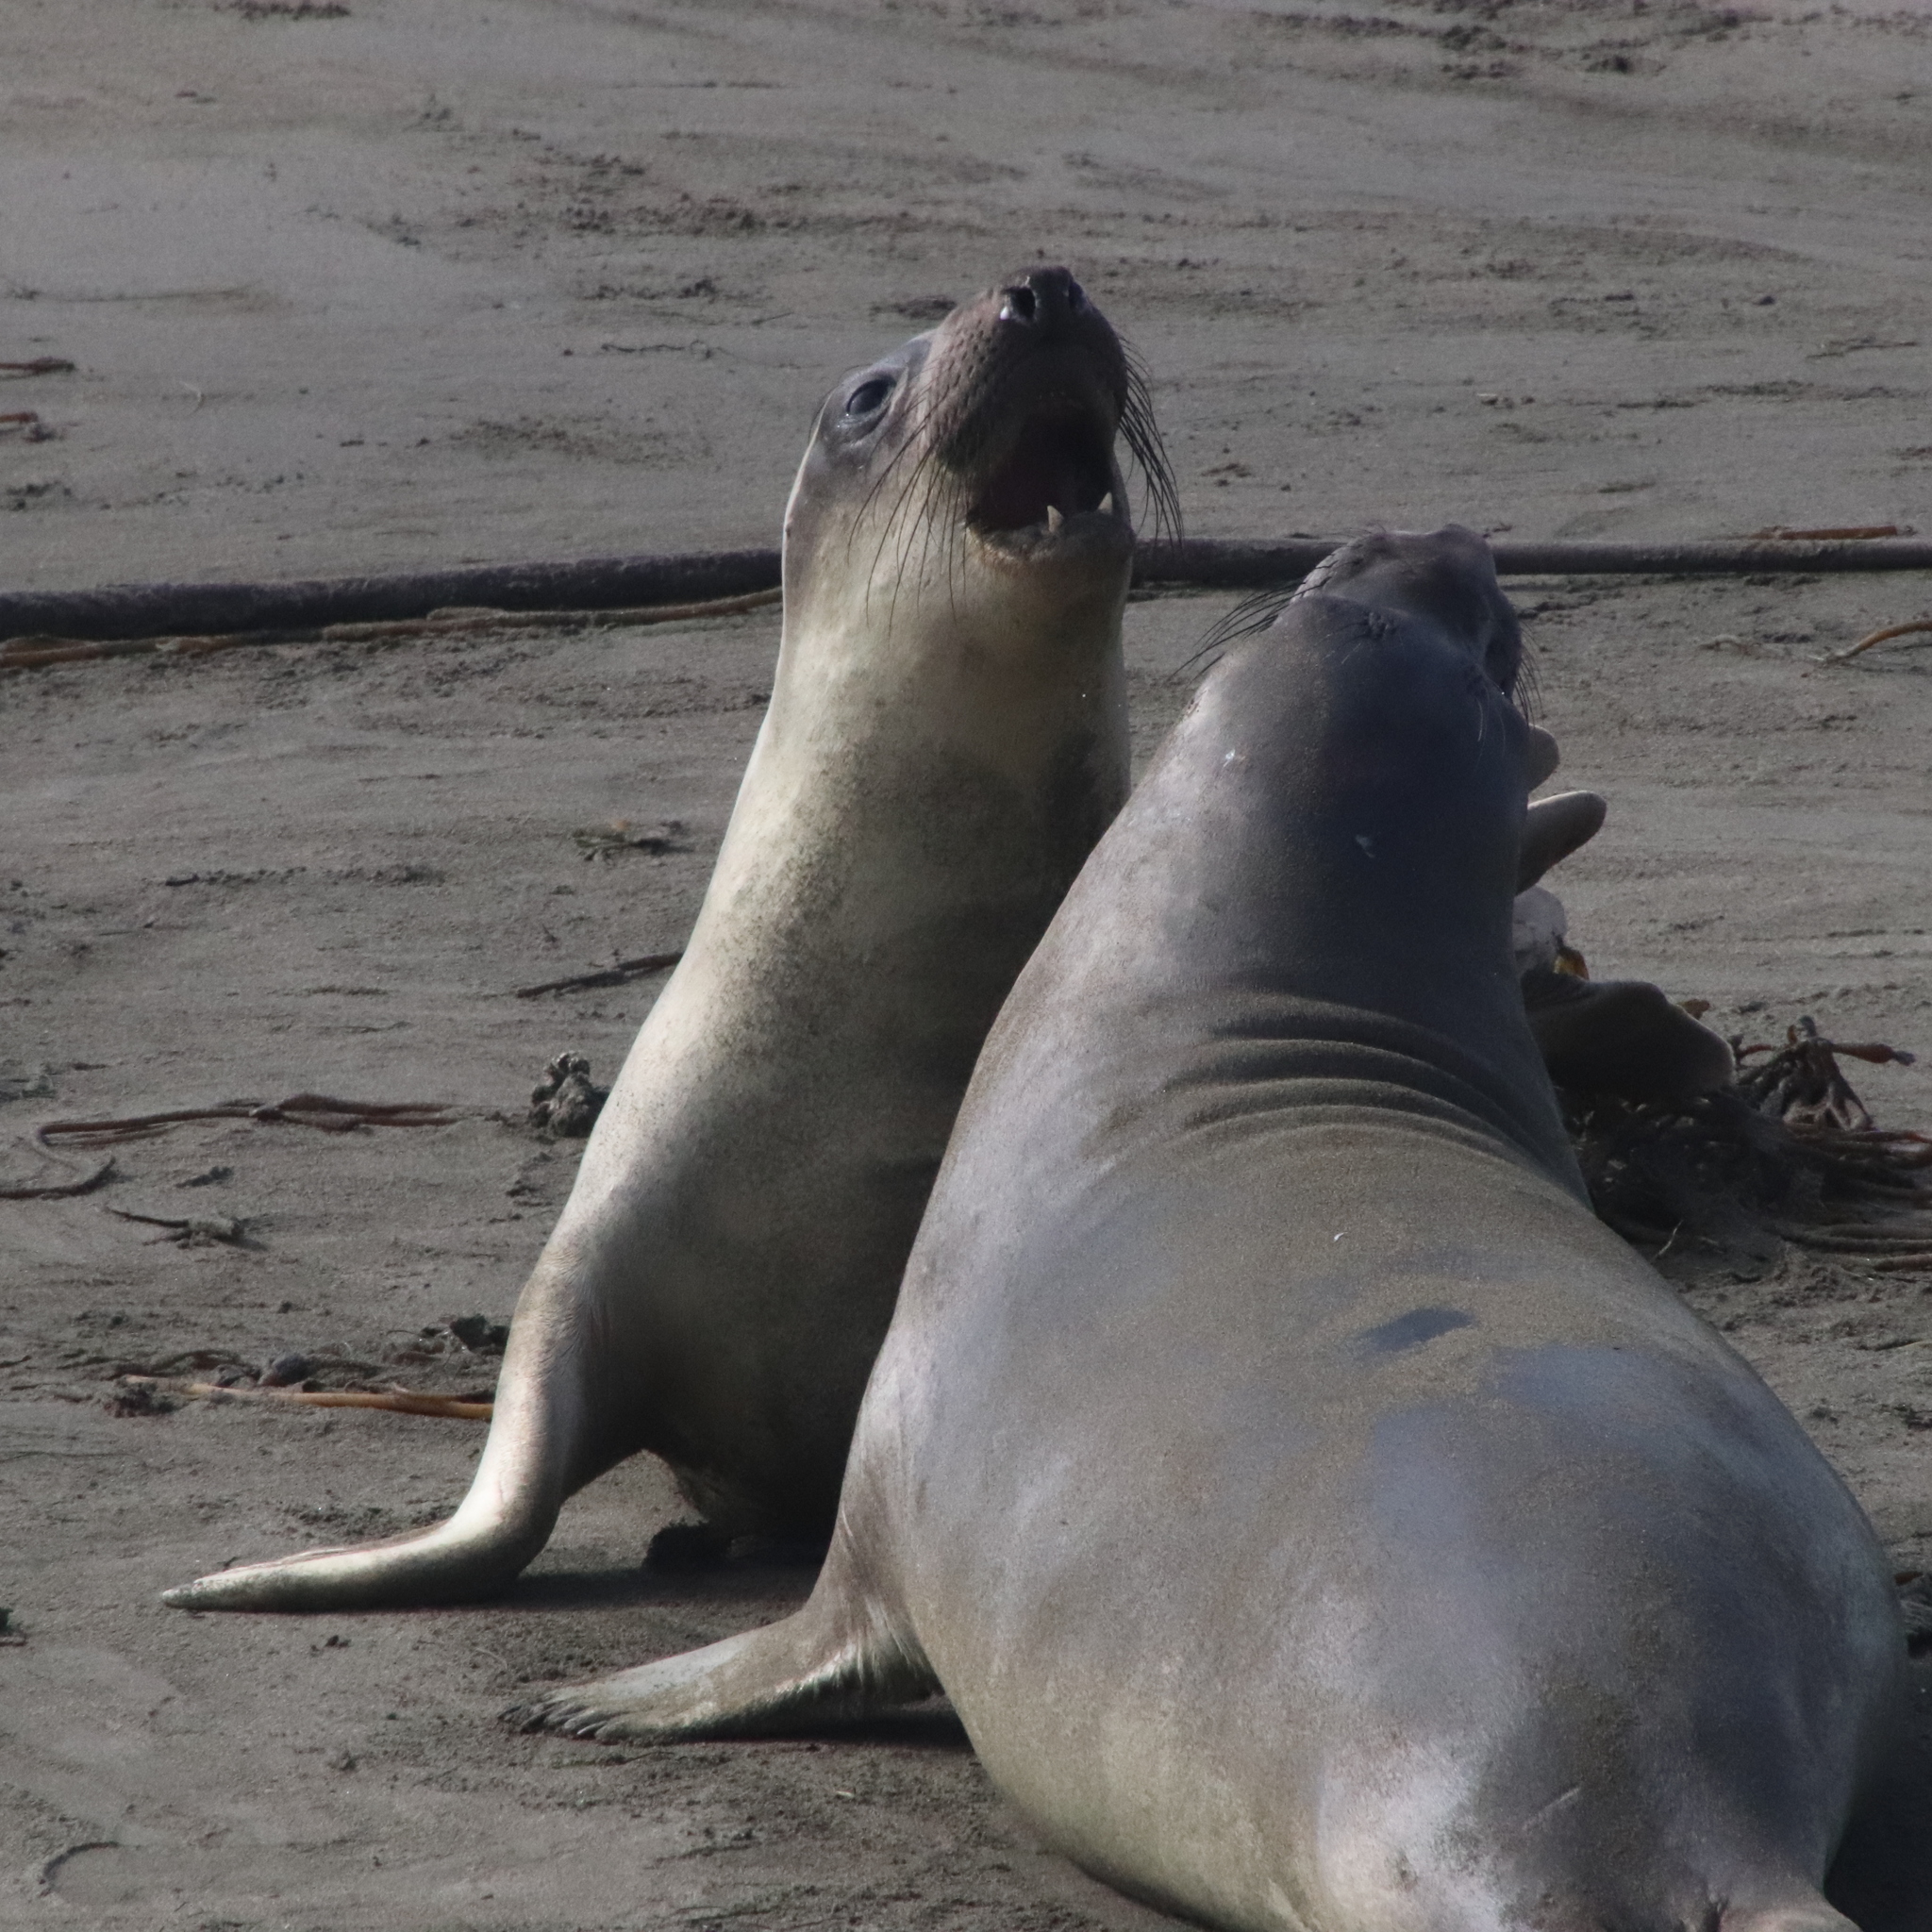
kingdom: Animalia
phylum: Chordata
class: Mammalia
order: Carnivora
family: Phocidae
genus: Mirounga
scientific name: Mirounga angustirostris
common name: Northern elephant seal
